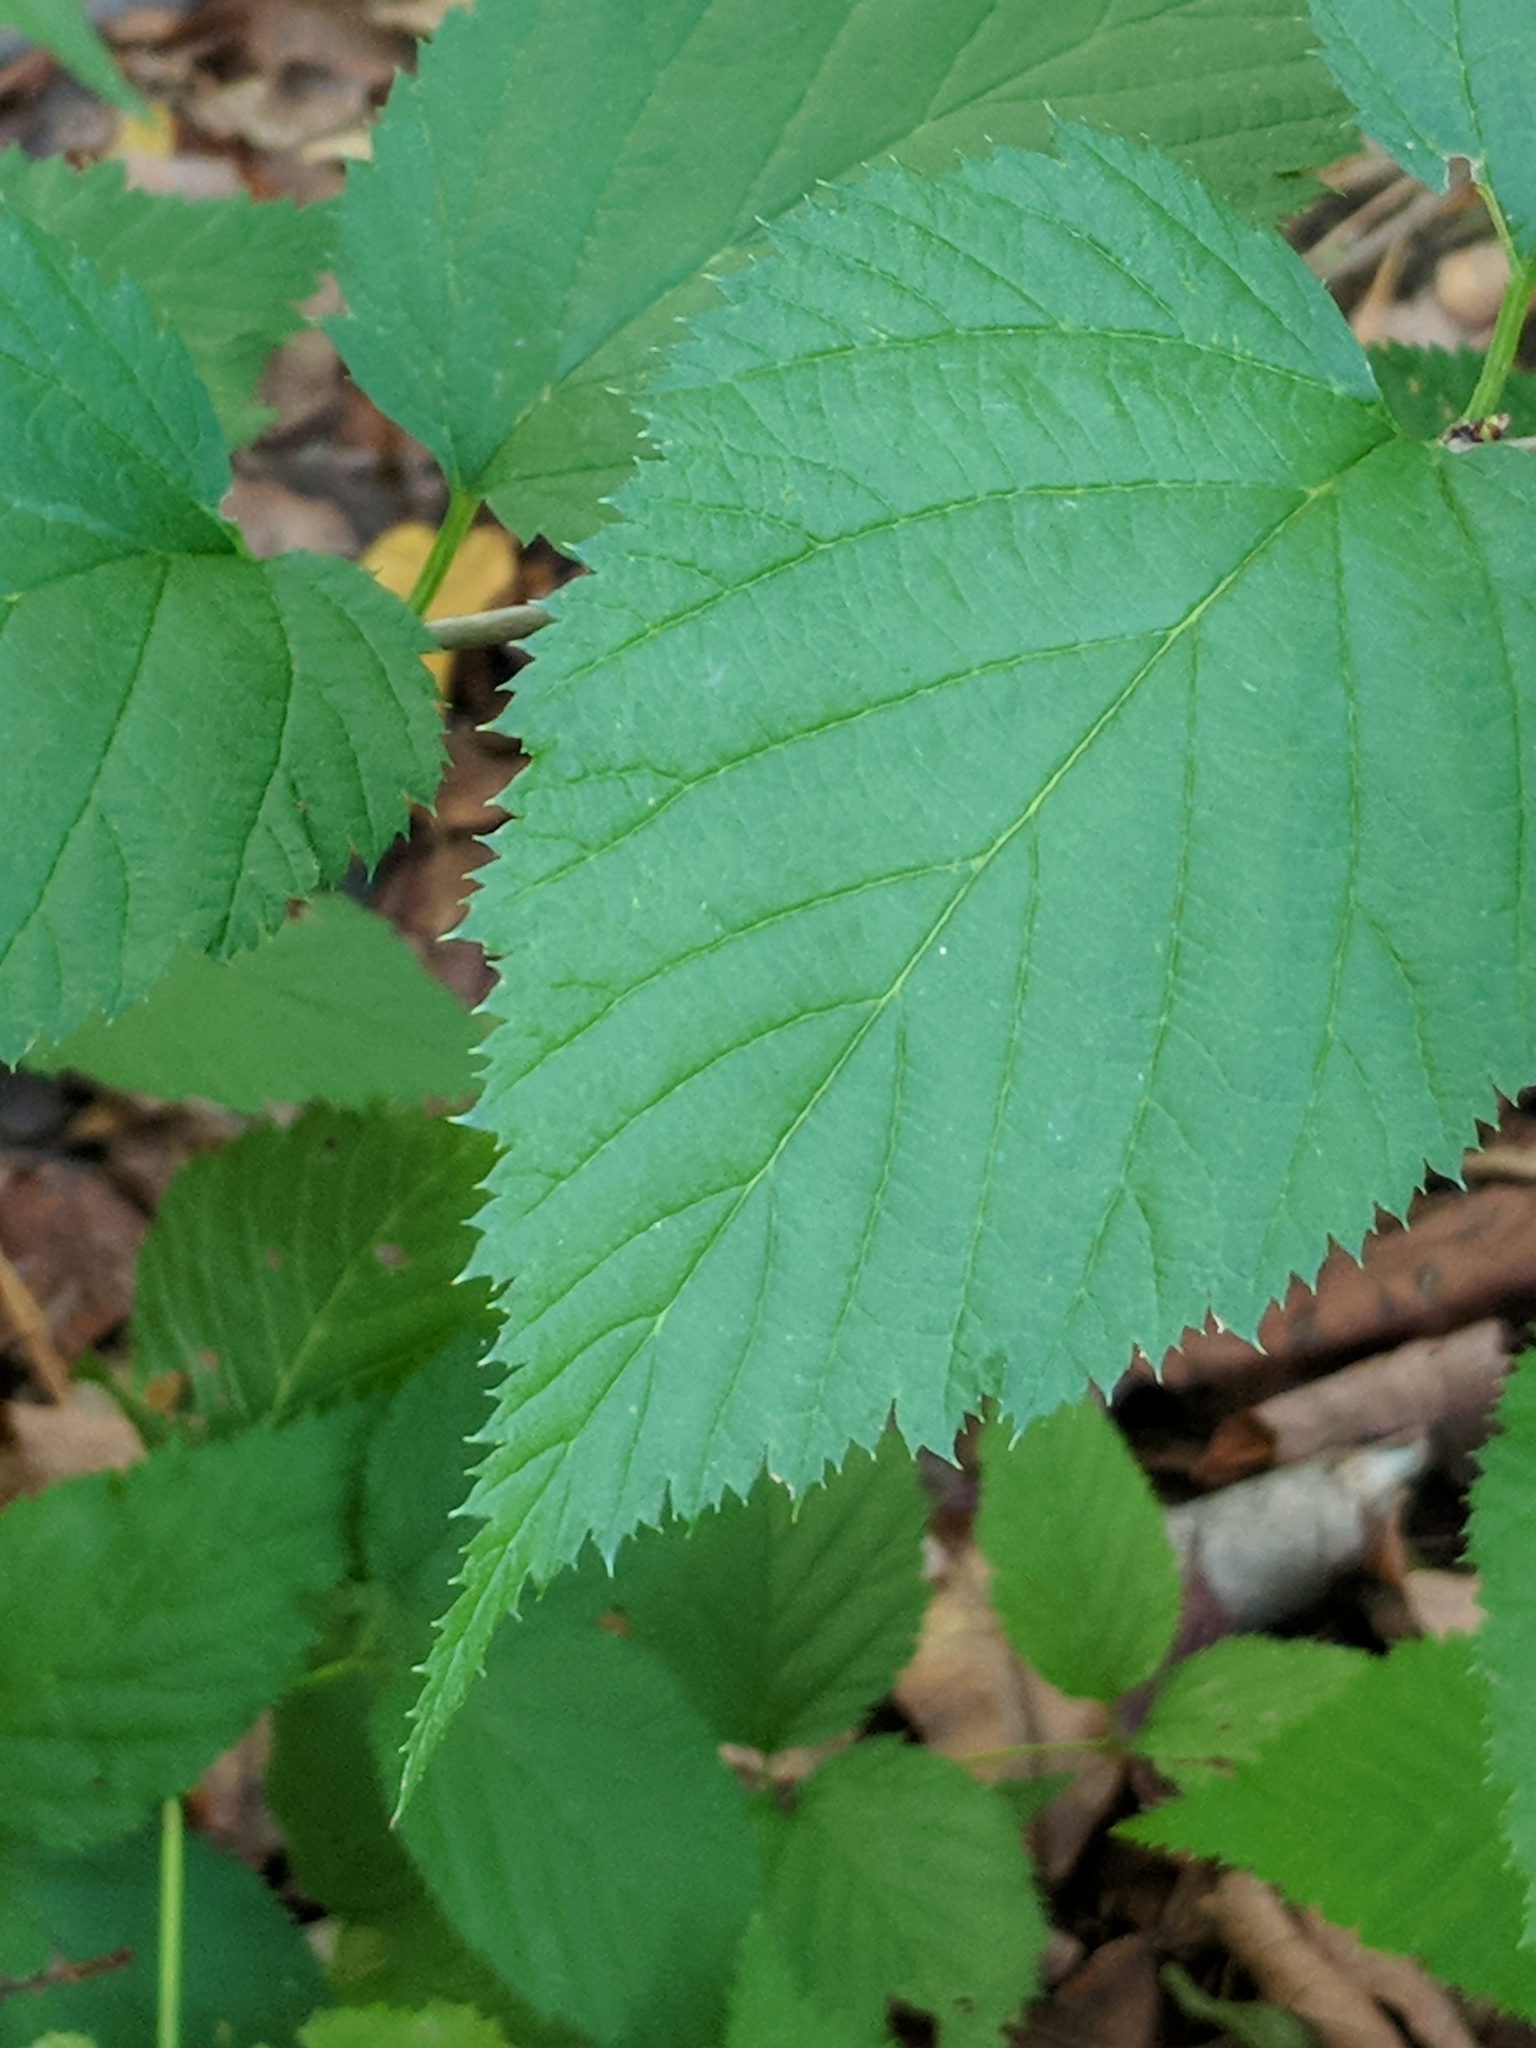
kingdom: Plantae
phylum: Tracheophyta
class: Magnoliopsida
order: Rosales
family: Rosaceae
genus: Rhodotypos
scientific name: Rhodotypos scandens
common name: Jetbead
